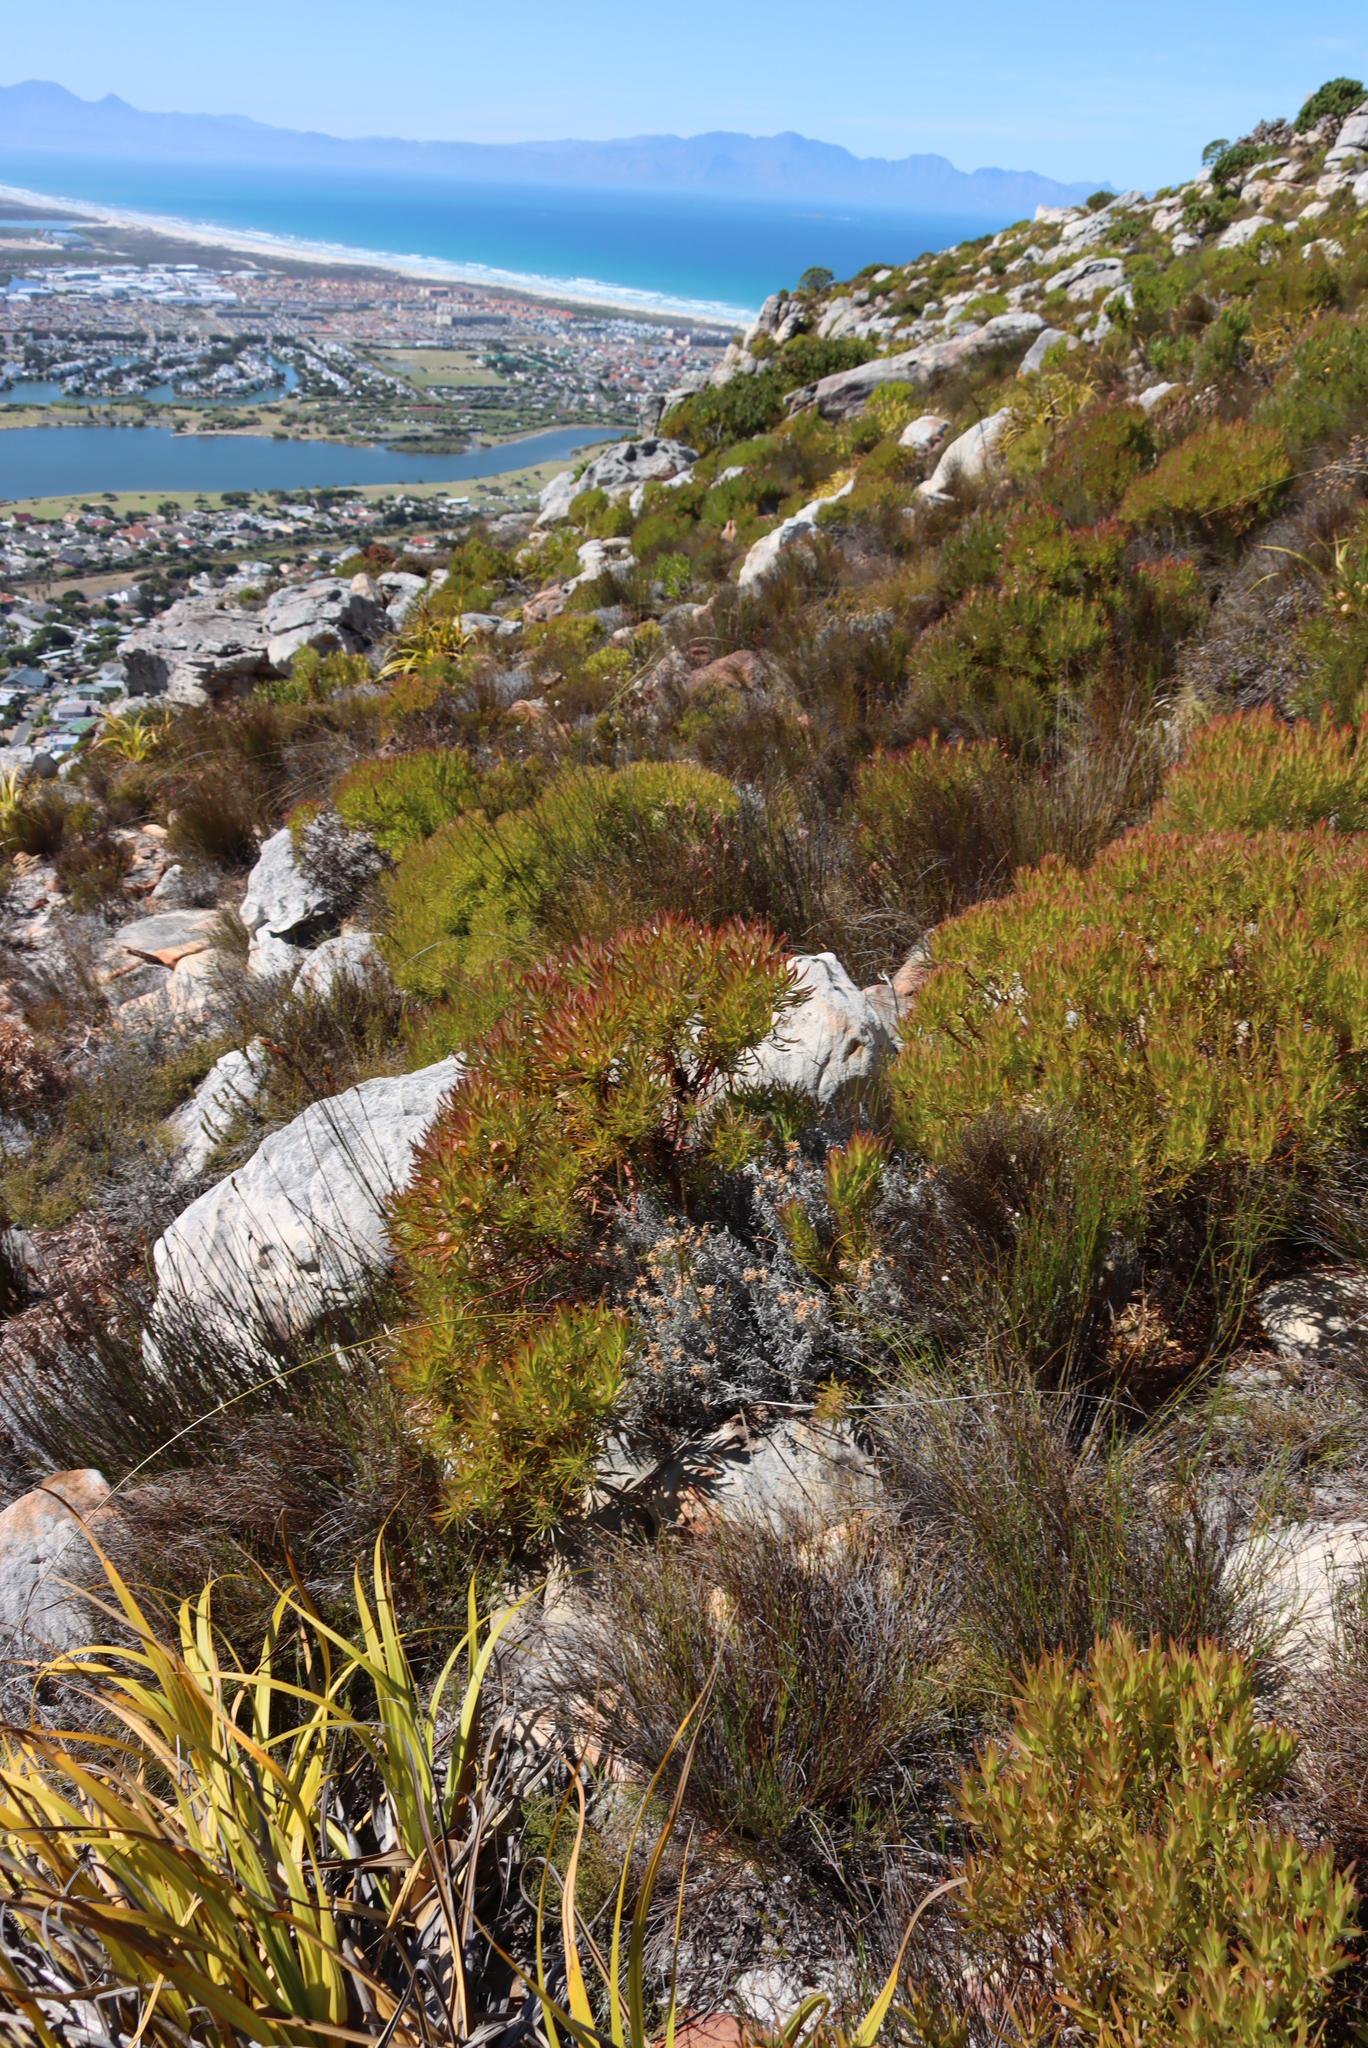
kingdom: Plantae
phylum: Tracheophyta
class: Magnoliopsida
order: Proteales
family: Proteaceae
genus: Leucadendron
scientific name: Leucadendron xanthoconus
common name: Sickle-leaf conebush
